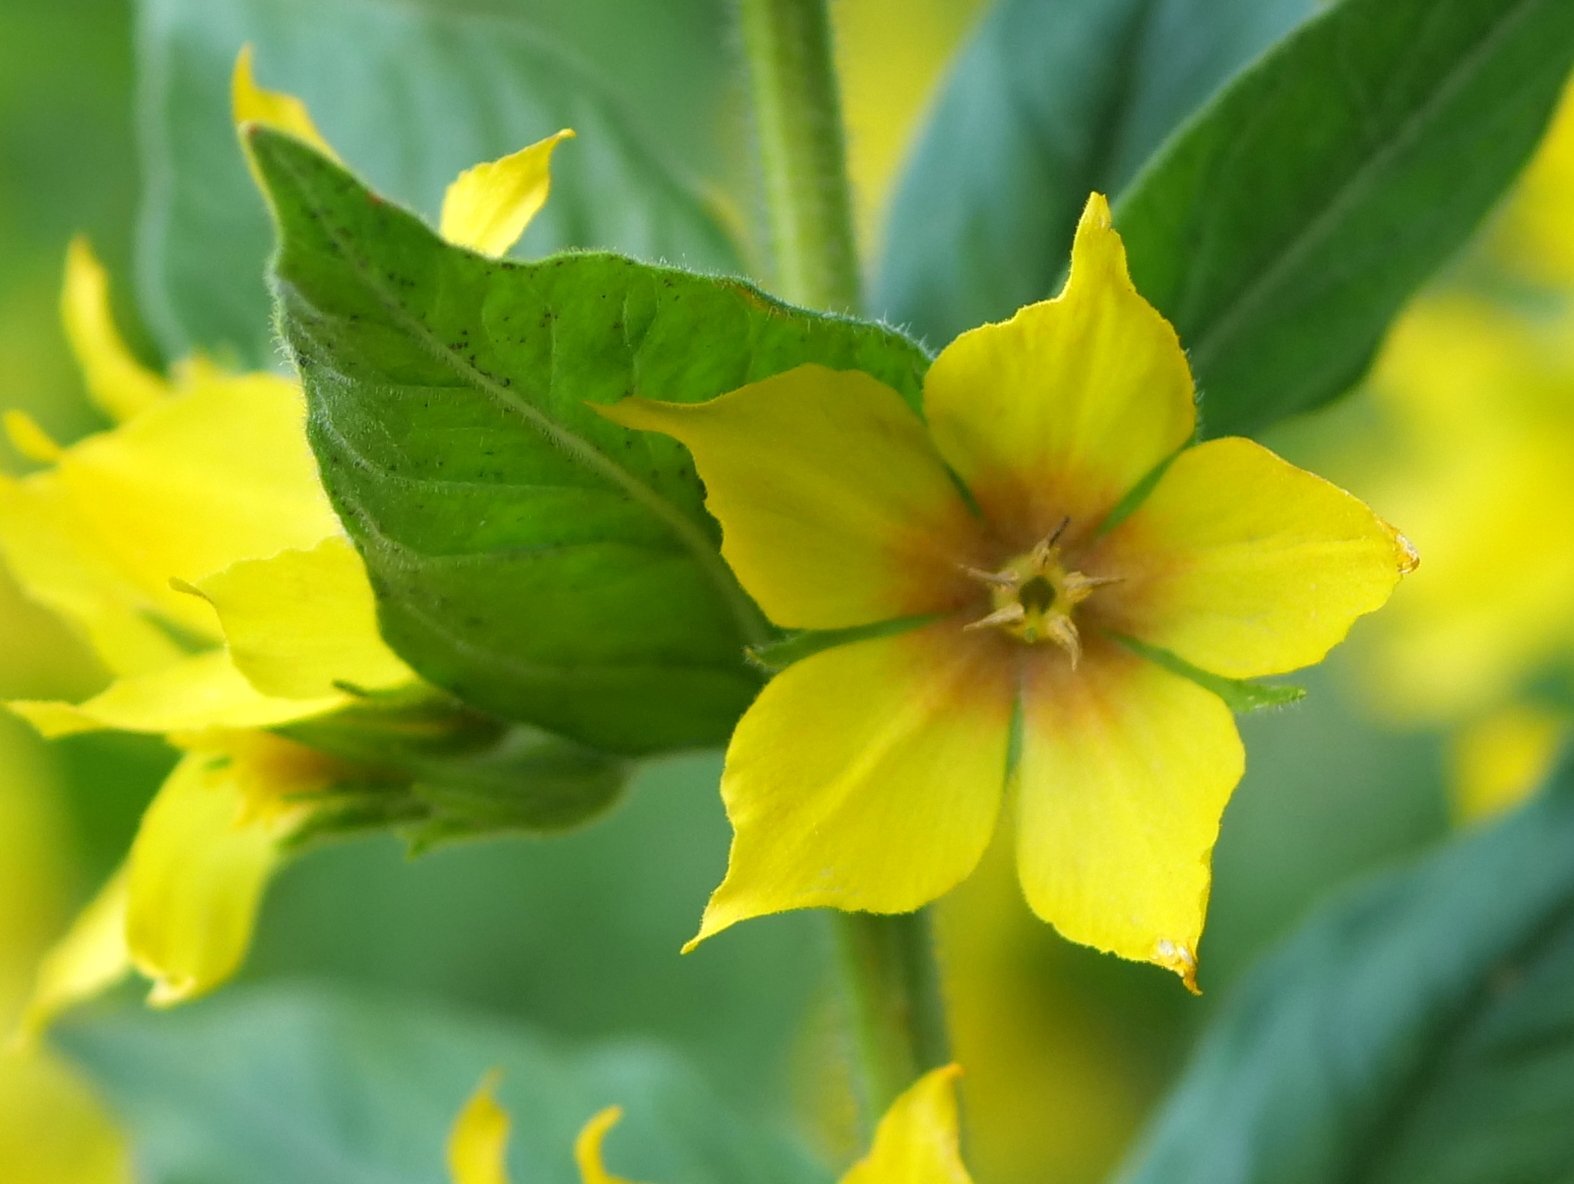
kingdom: Plantae
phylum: Tracheophyta
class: Magnoliopsida
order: Ericales
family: Primulaceae
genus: Lysimachia
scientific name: Lysimachia punctata
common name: Dotted loosestrife
